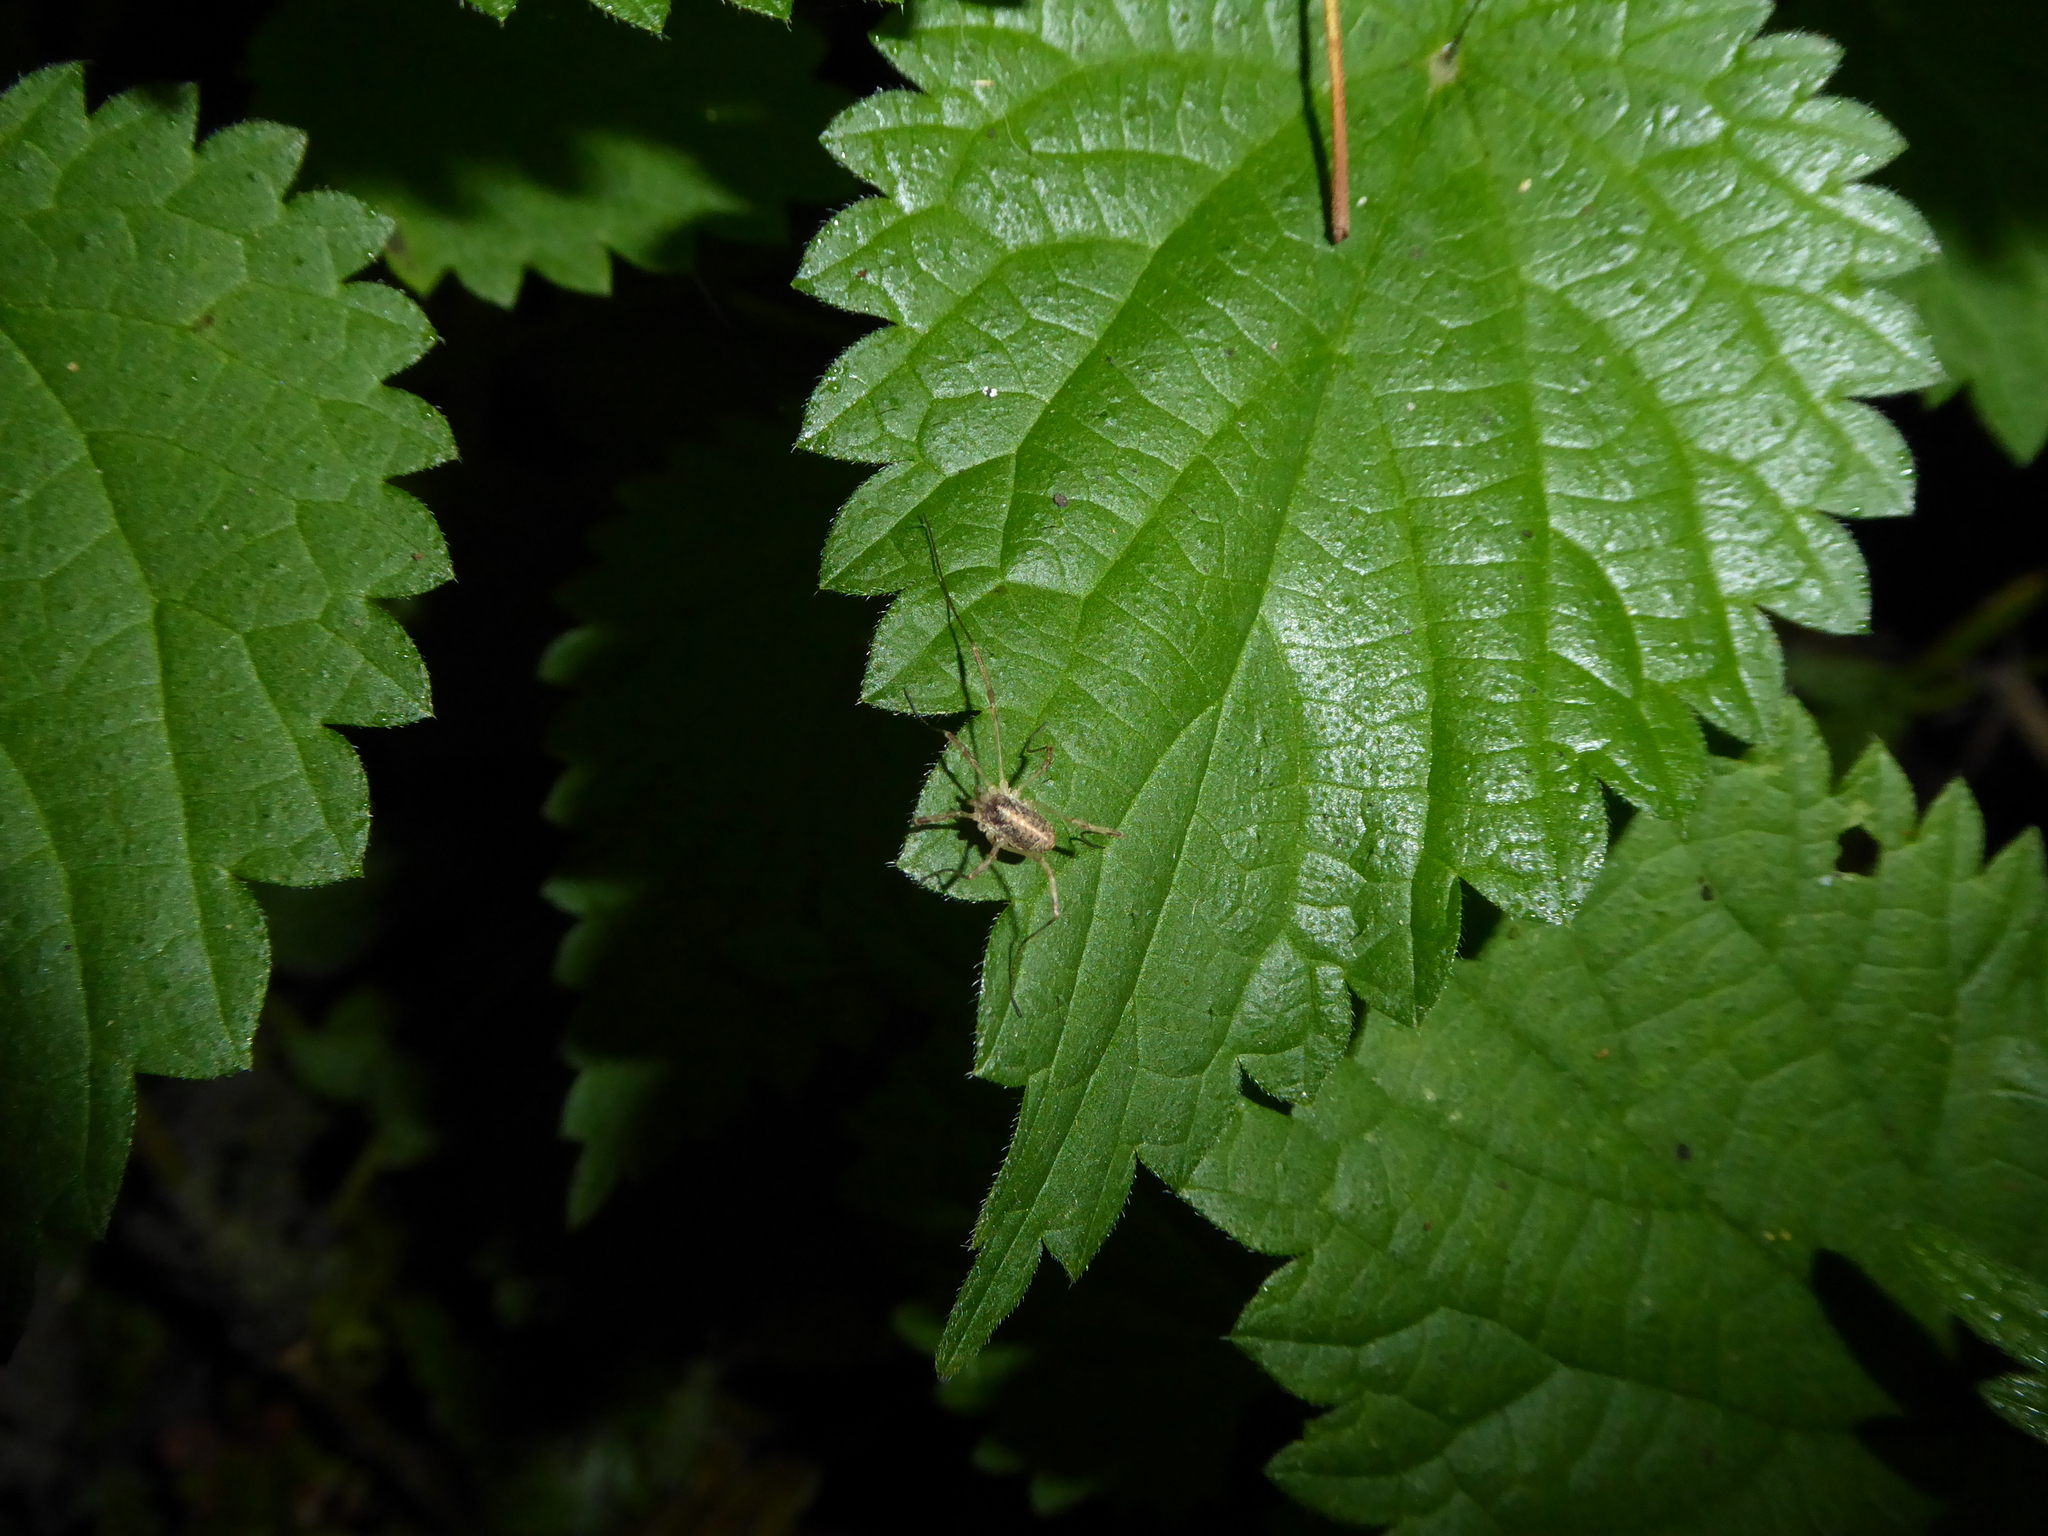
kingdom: Animalia
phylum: Arthropoda
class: Arachnida
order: Opiliones
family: Phalangiidae
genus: Paroligolophus
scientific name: Paroligolophus agrestis
